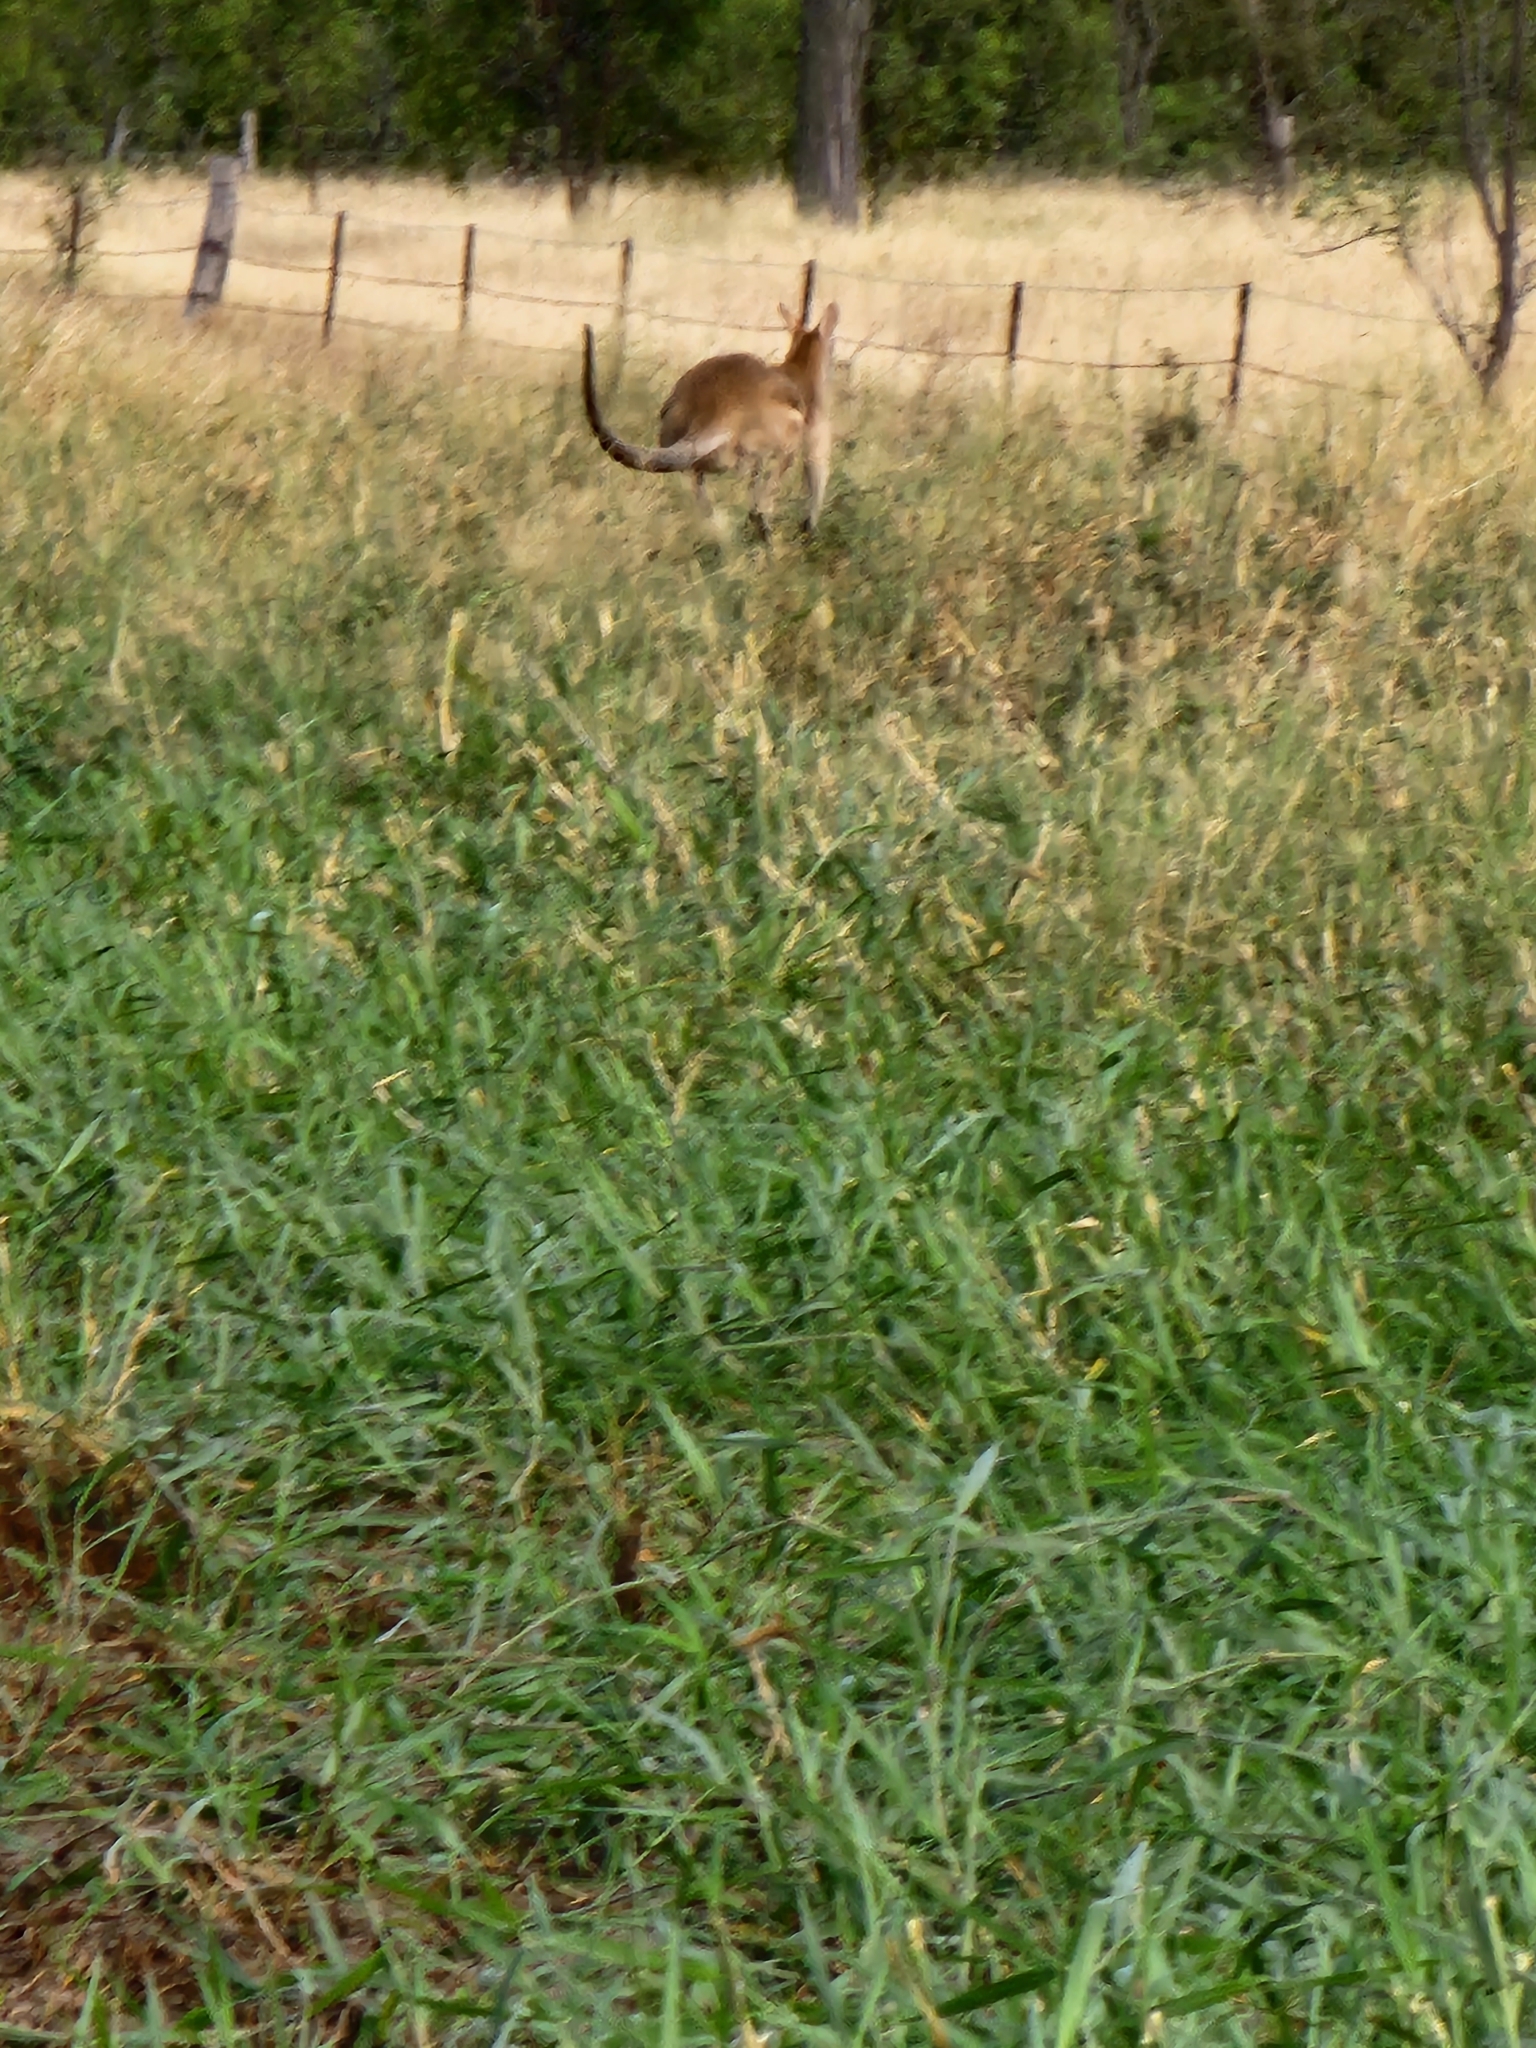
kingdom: Animalia
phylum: Chordata
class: Mammalia
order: Diprotodontia
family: Macropodidae
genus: Macropus
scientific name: Macropus agilis
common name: Agile wallaby
